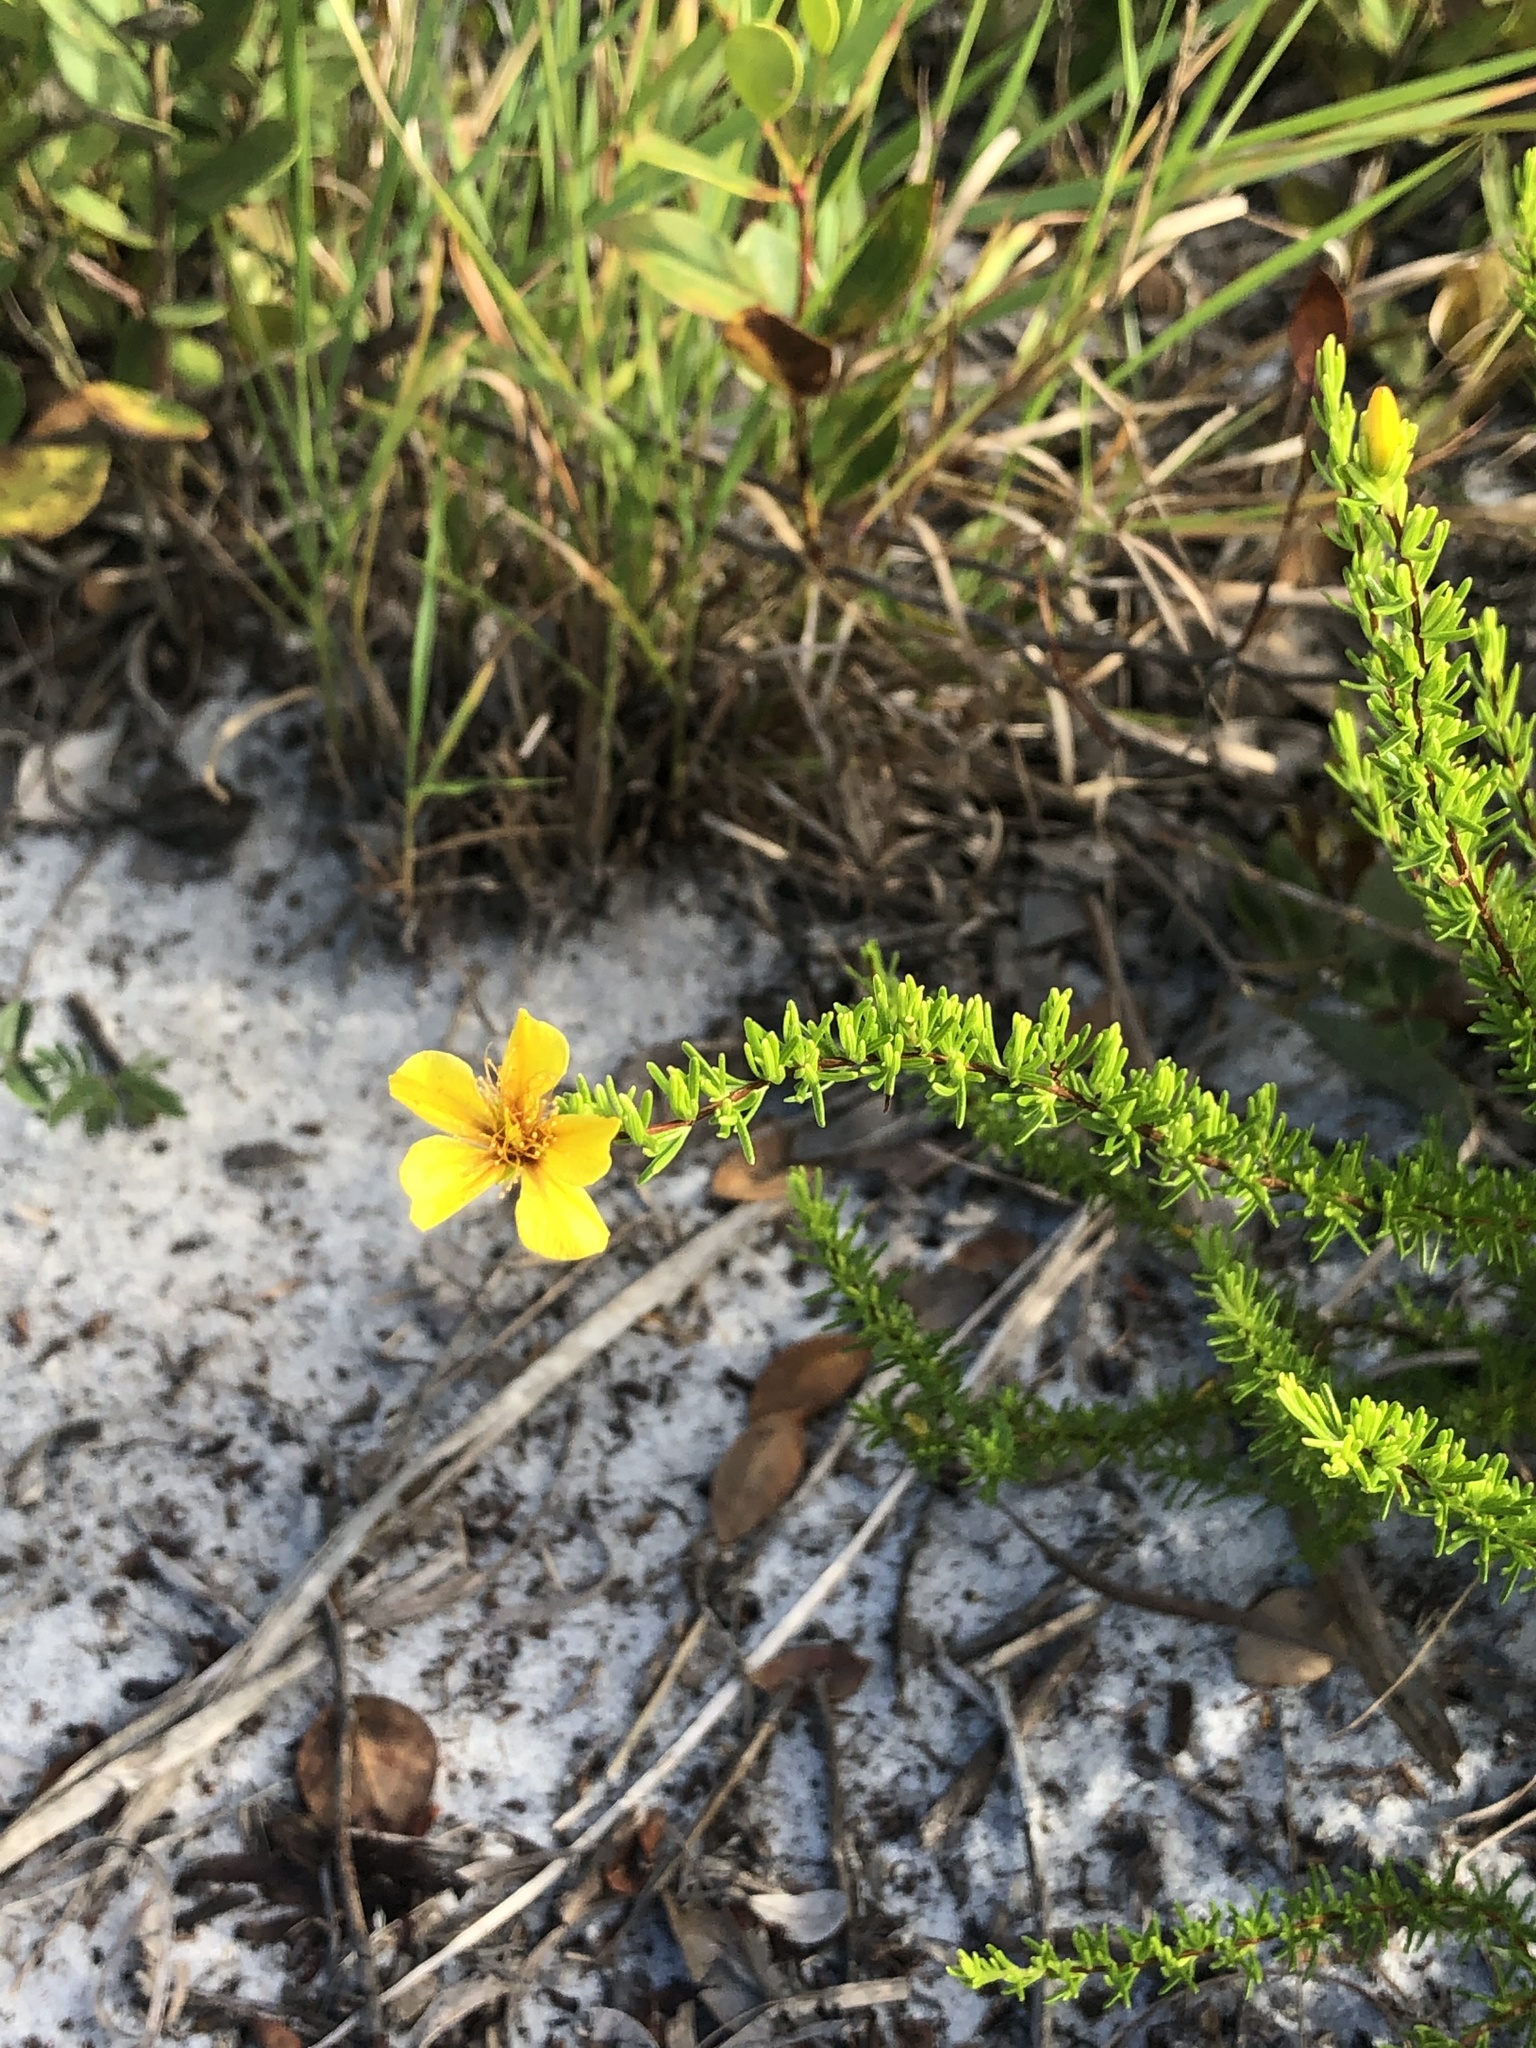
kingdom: Plantae
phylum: Tracheophyta
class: Magnoliopsida
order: Malpighiales
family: Hypericaceae
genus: Hypericum
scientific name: Hypericum tenuifolium
